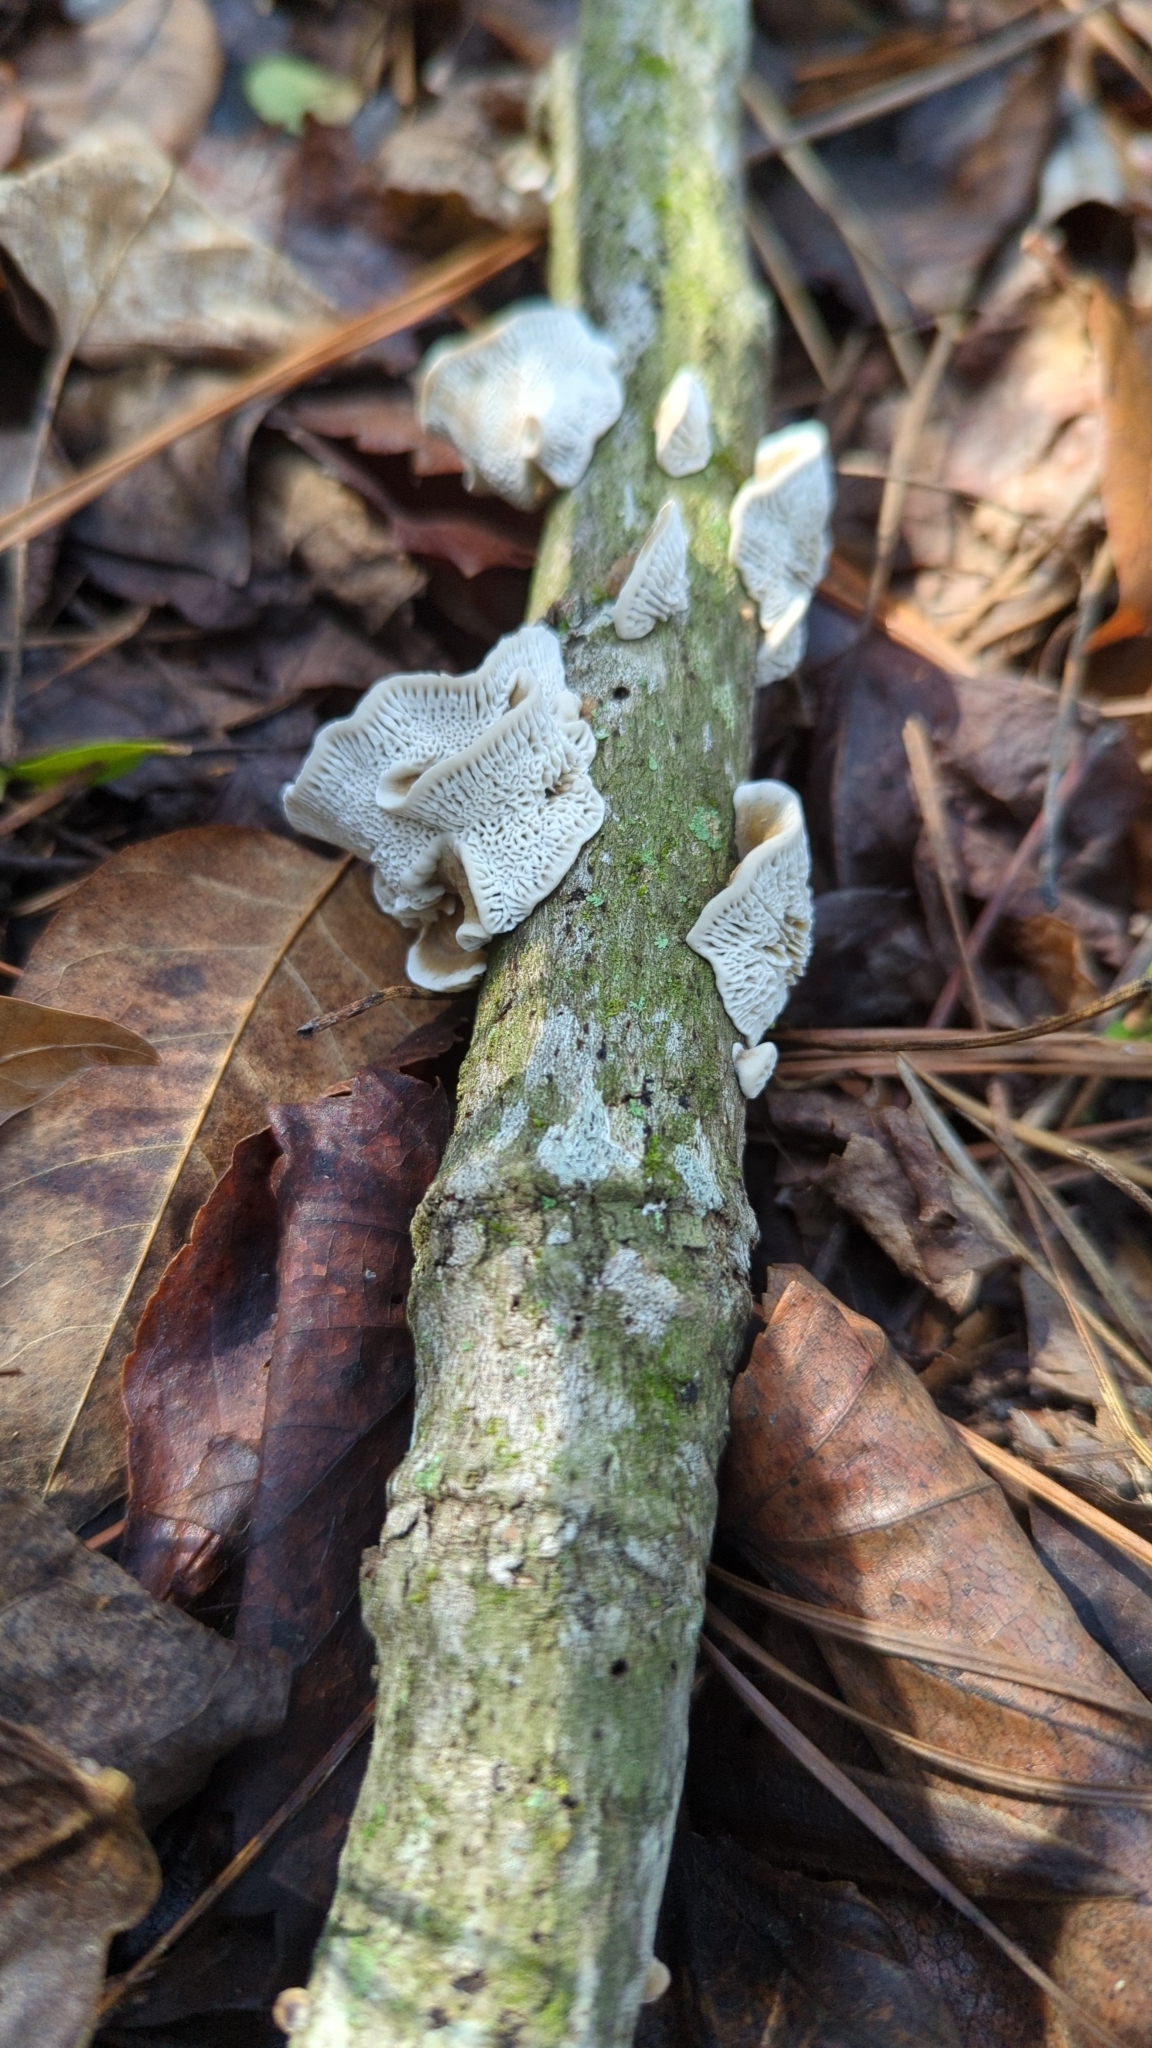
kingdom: Fungi
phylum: Basidiomycota
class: Agaricomycetes
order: Polyporales
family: Polyporaceae
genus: Daedaleopsis
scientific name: Daedaleopsis confragosa
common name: Blushing bracket
